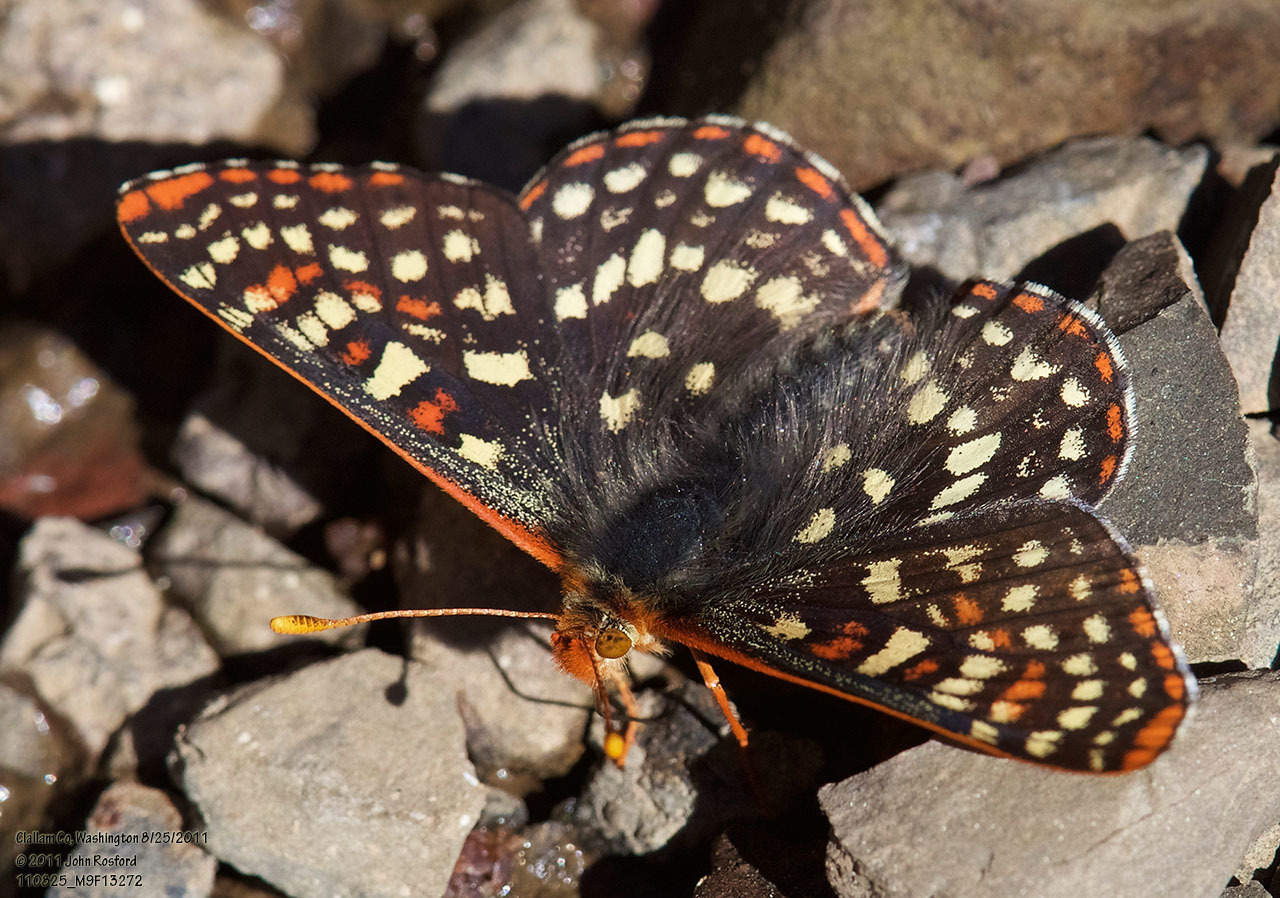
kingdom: Animalia
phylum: Arthropoda
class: Insecta
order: Lepidoptera
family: Nymphalidae
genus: Occidryas
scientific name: Occidryas colon
